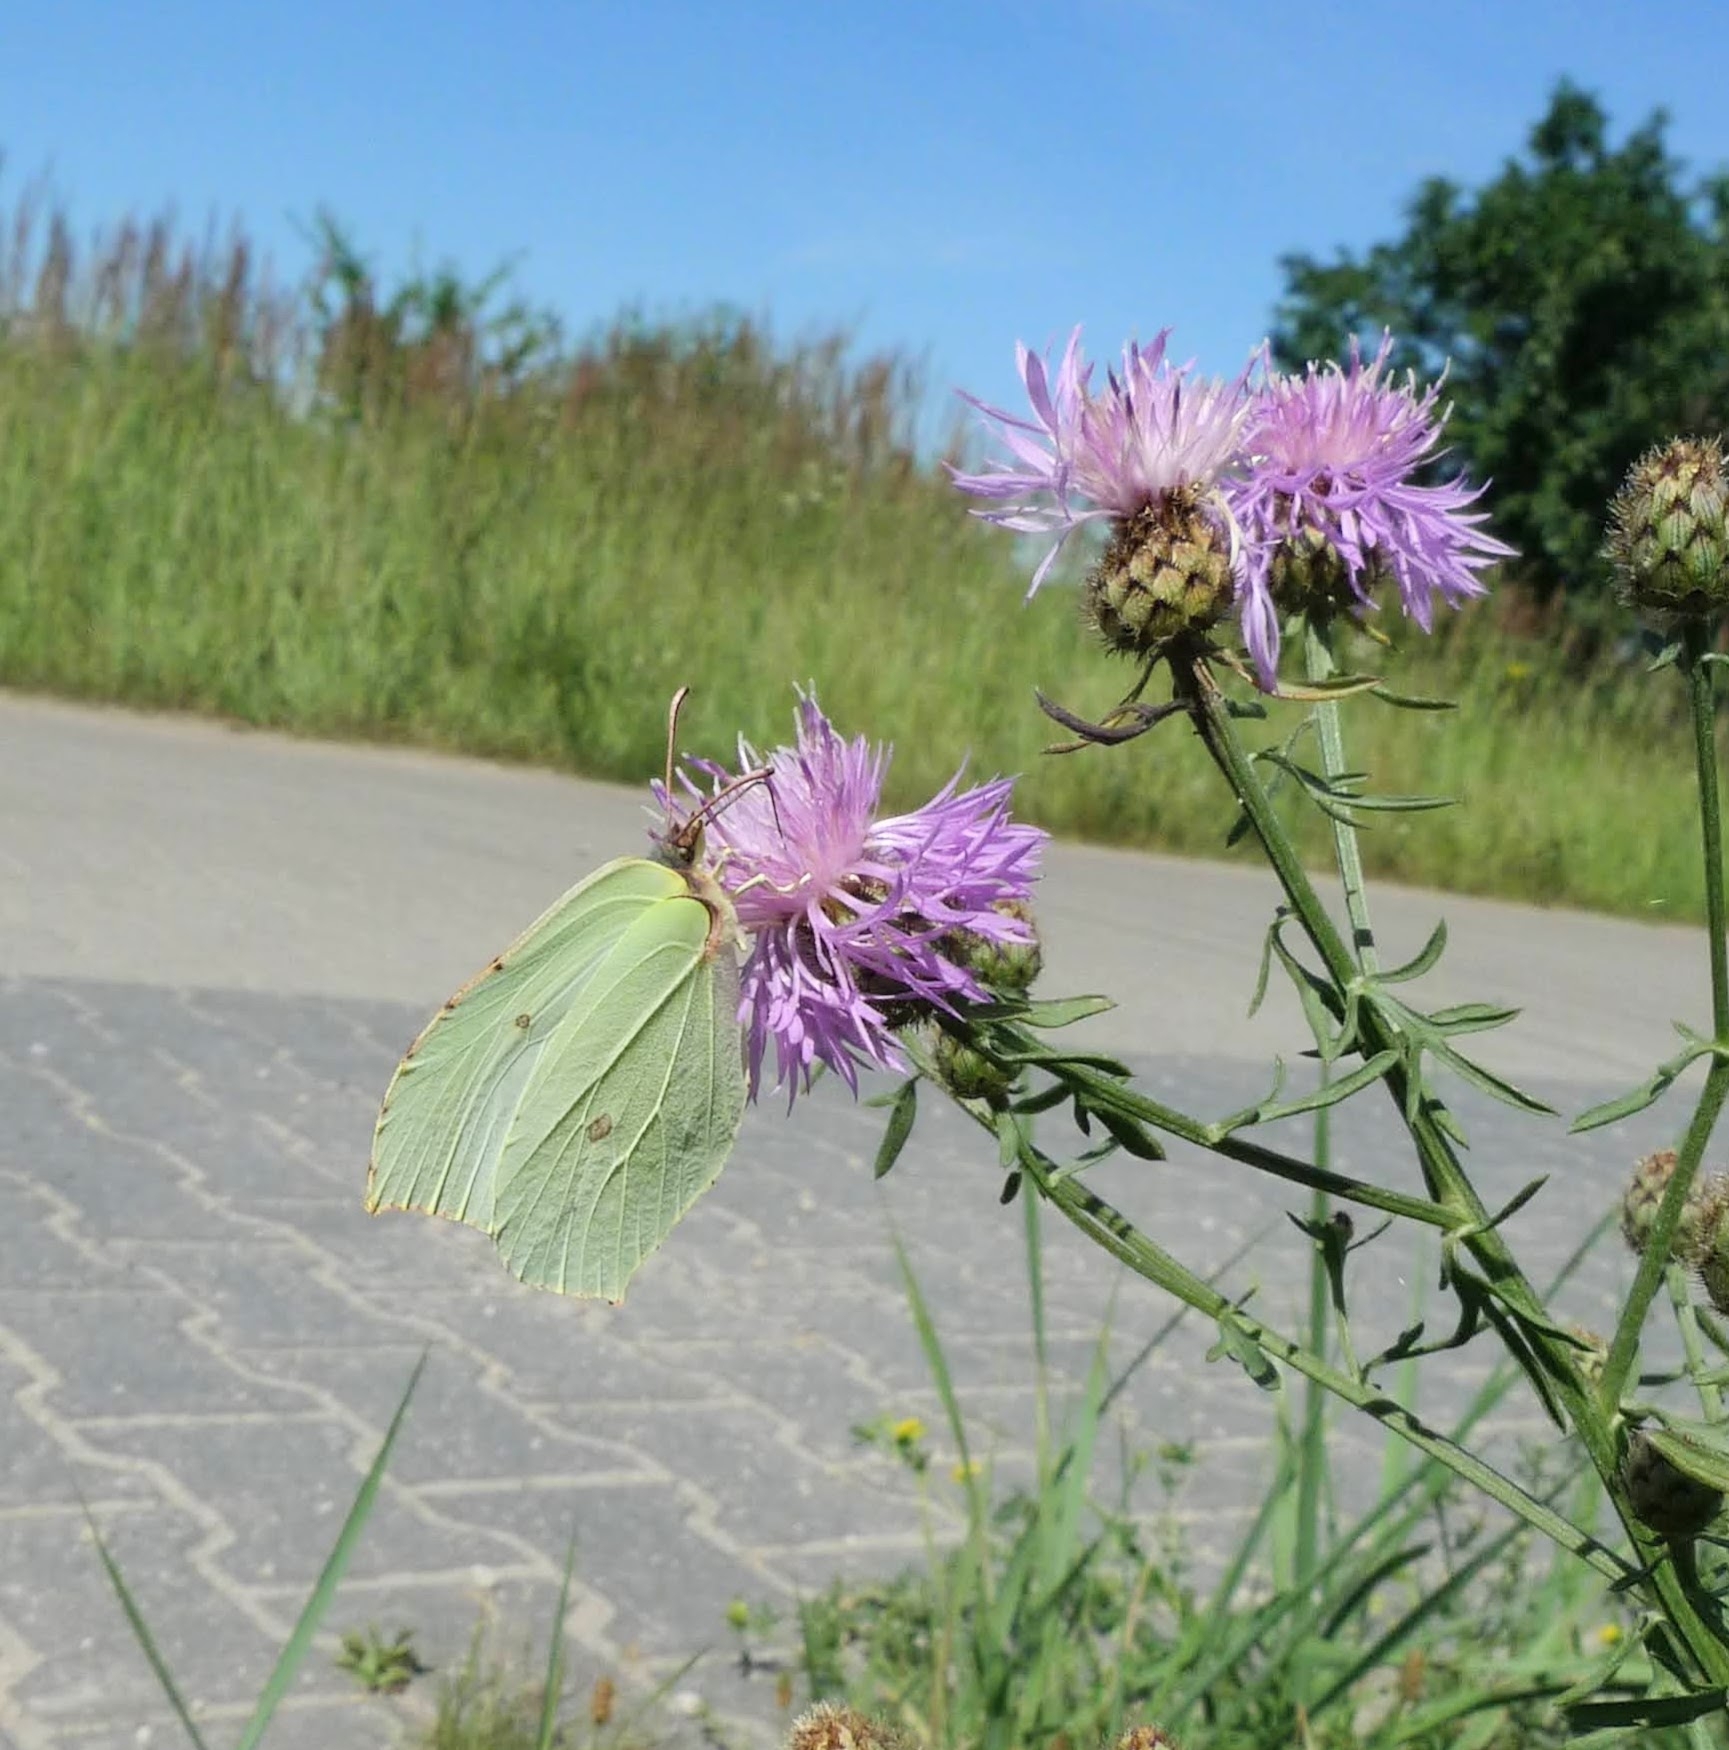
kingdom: Animalia
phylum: Arthropoda
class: Insecta
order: Lepidoptera
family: Pieridae
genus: Gonepteryx
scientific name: Gonepteryx rhamni
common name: Brimstone
